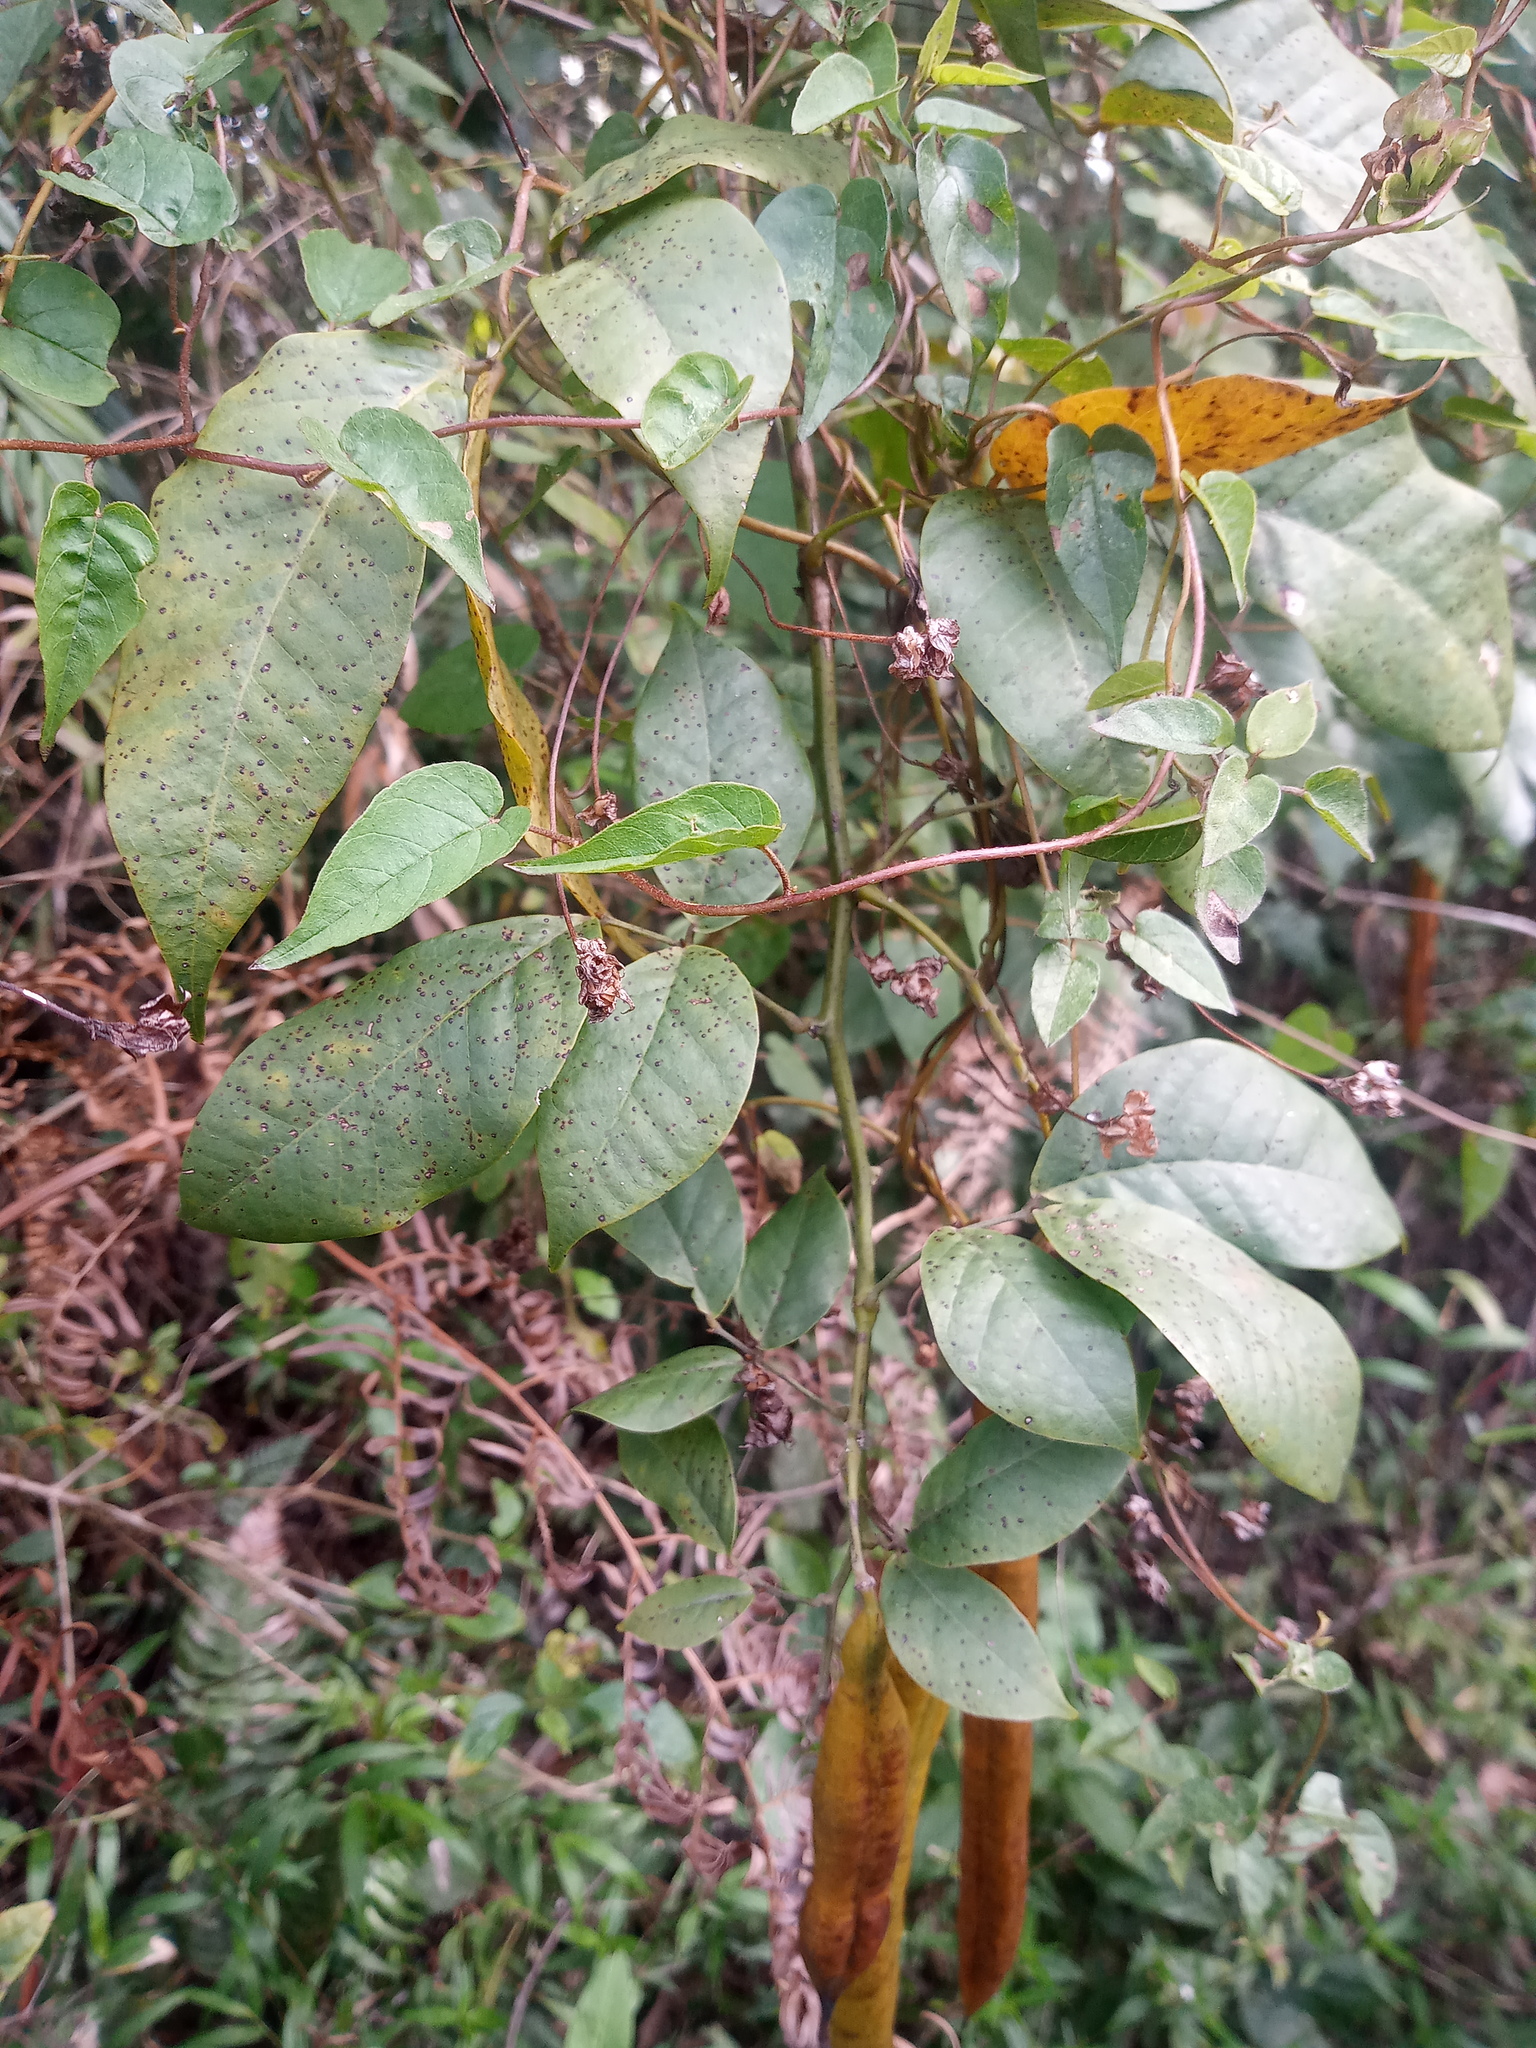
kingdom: Plantae
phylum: Tracheophyta
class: Magnoliopsida
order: Fabales
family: Fabaceae
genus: Senna
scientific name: Senna nitida
